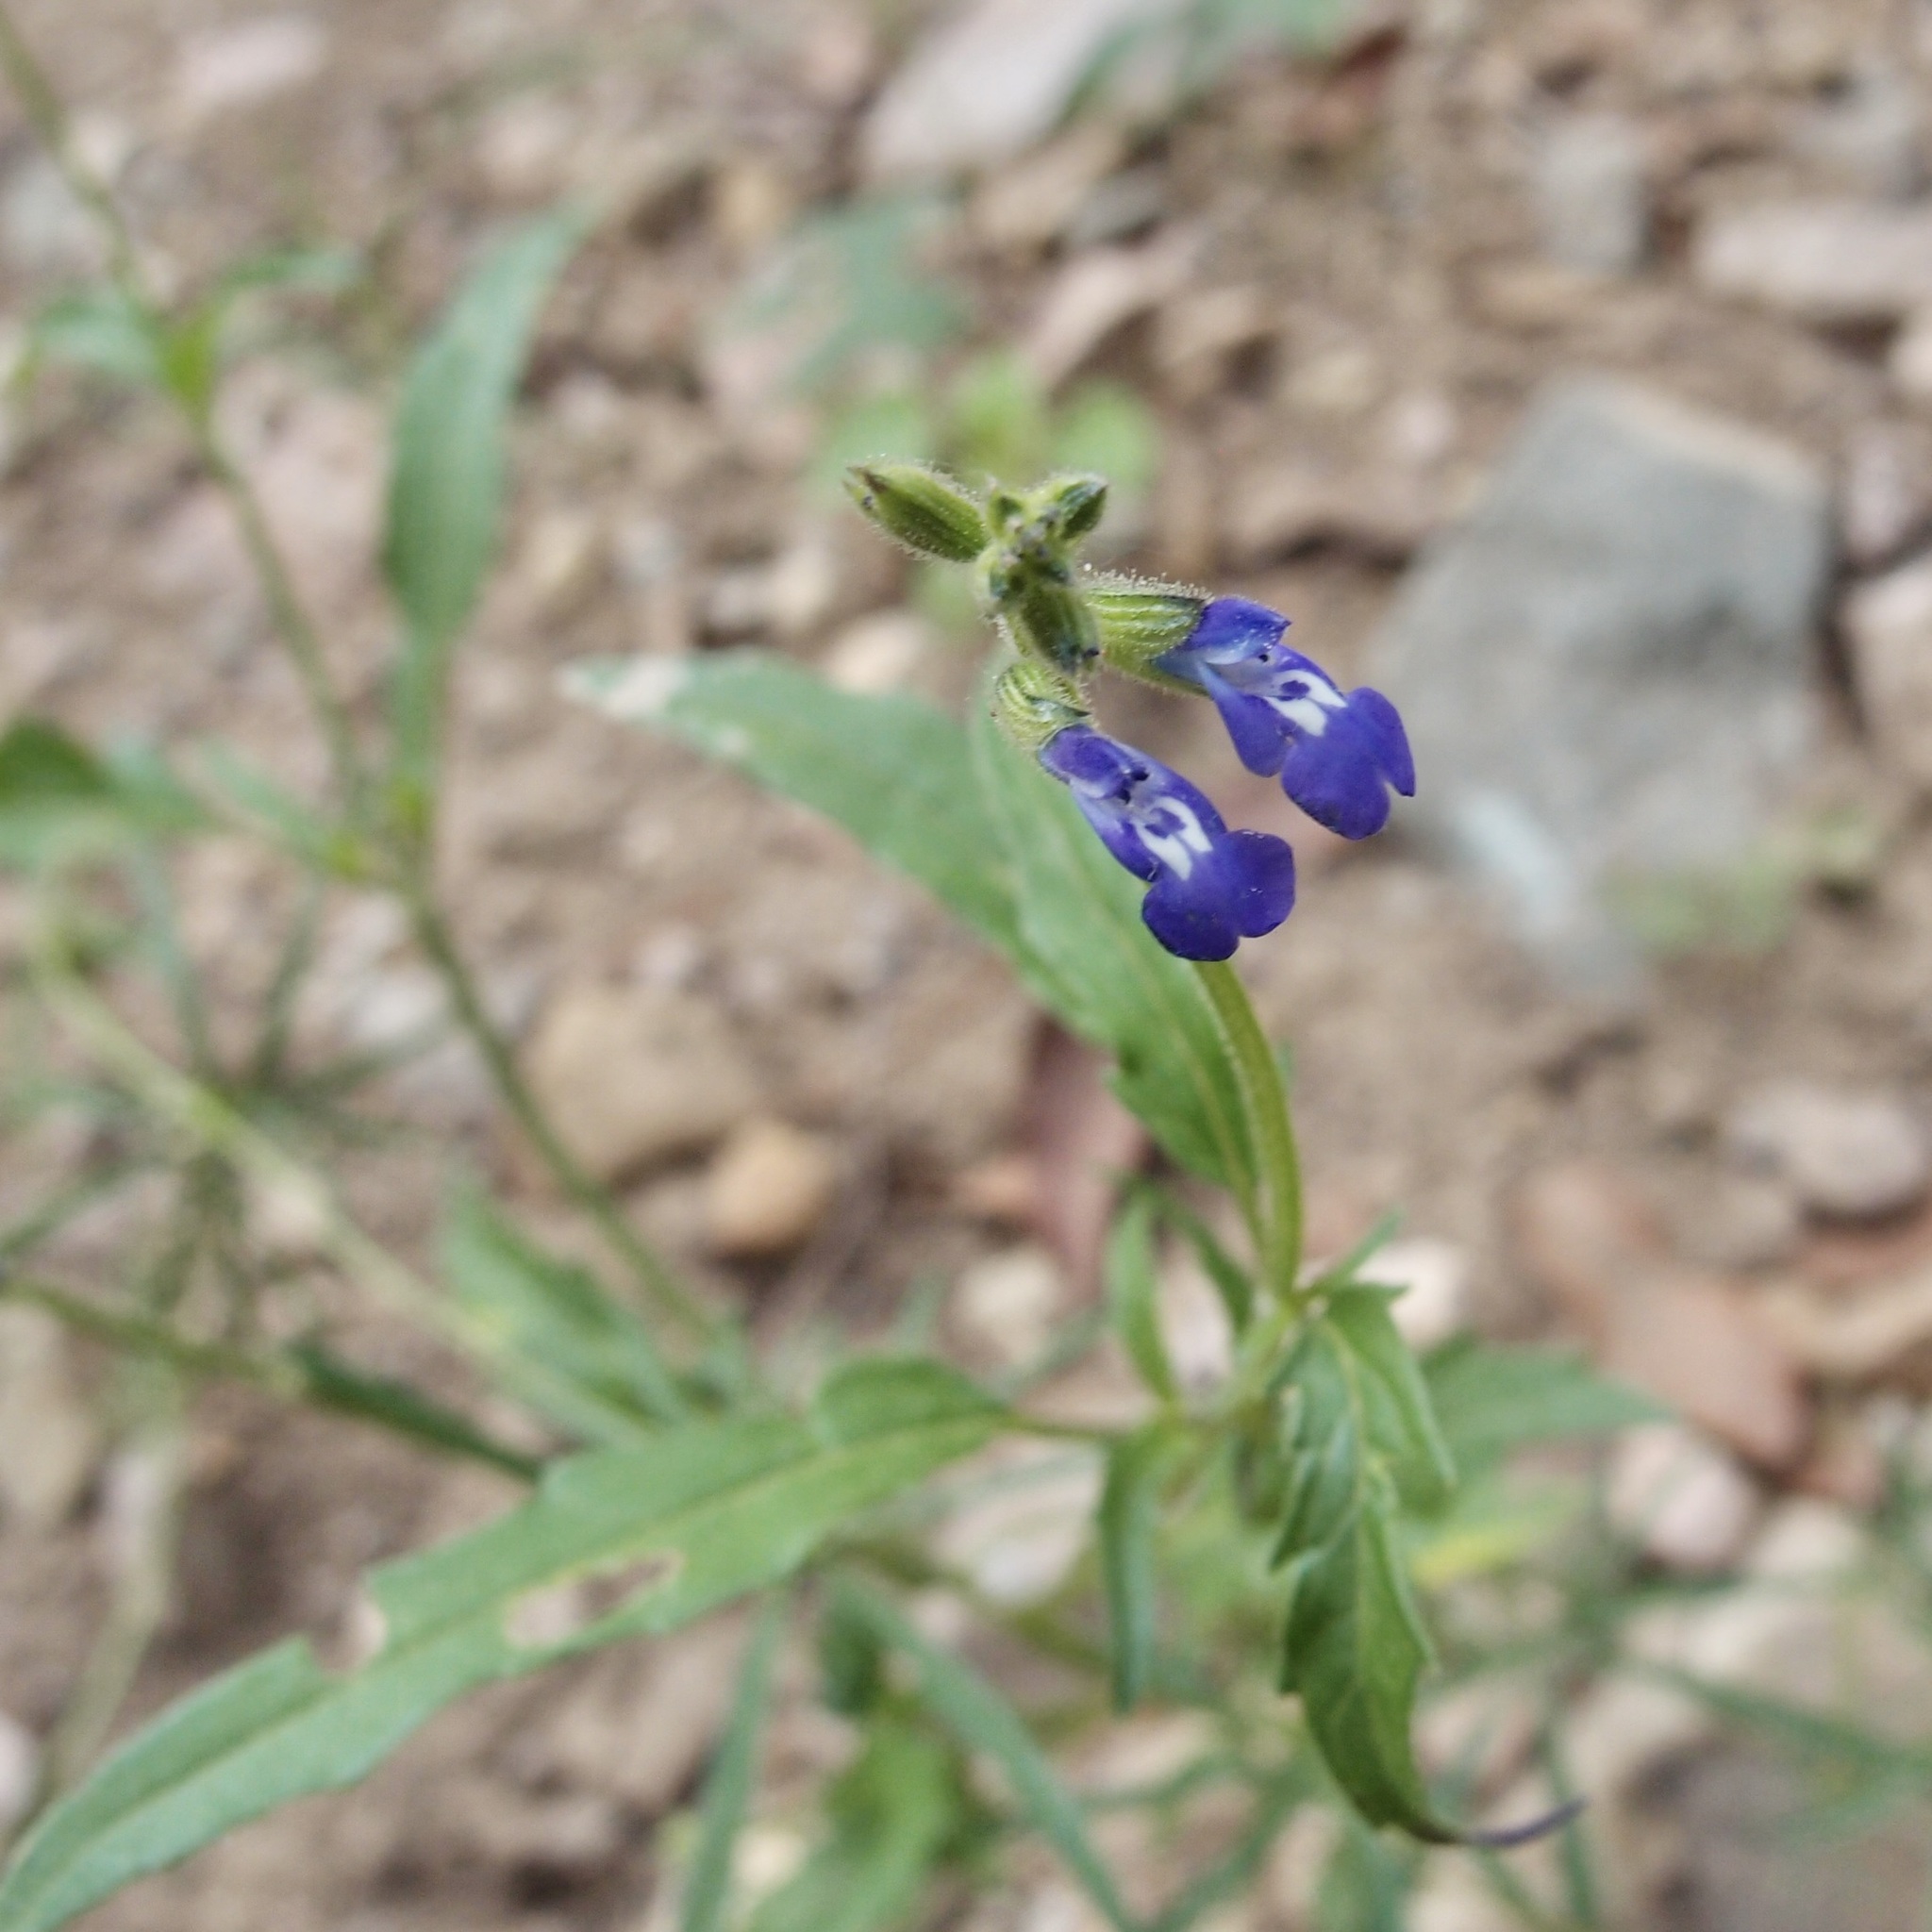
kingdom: Plantae
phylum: Tracheophyta
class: Magnoliopsida
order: Lamiales
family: Lamiaceae
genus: Salvia
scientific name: Salvia subincisa
